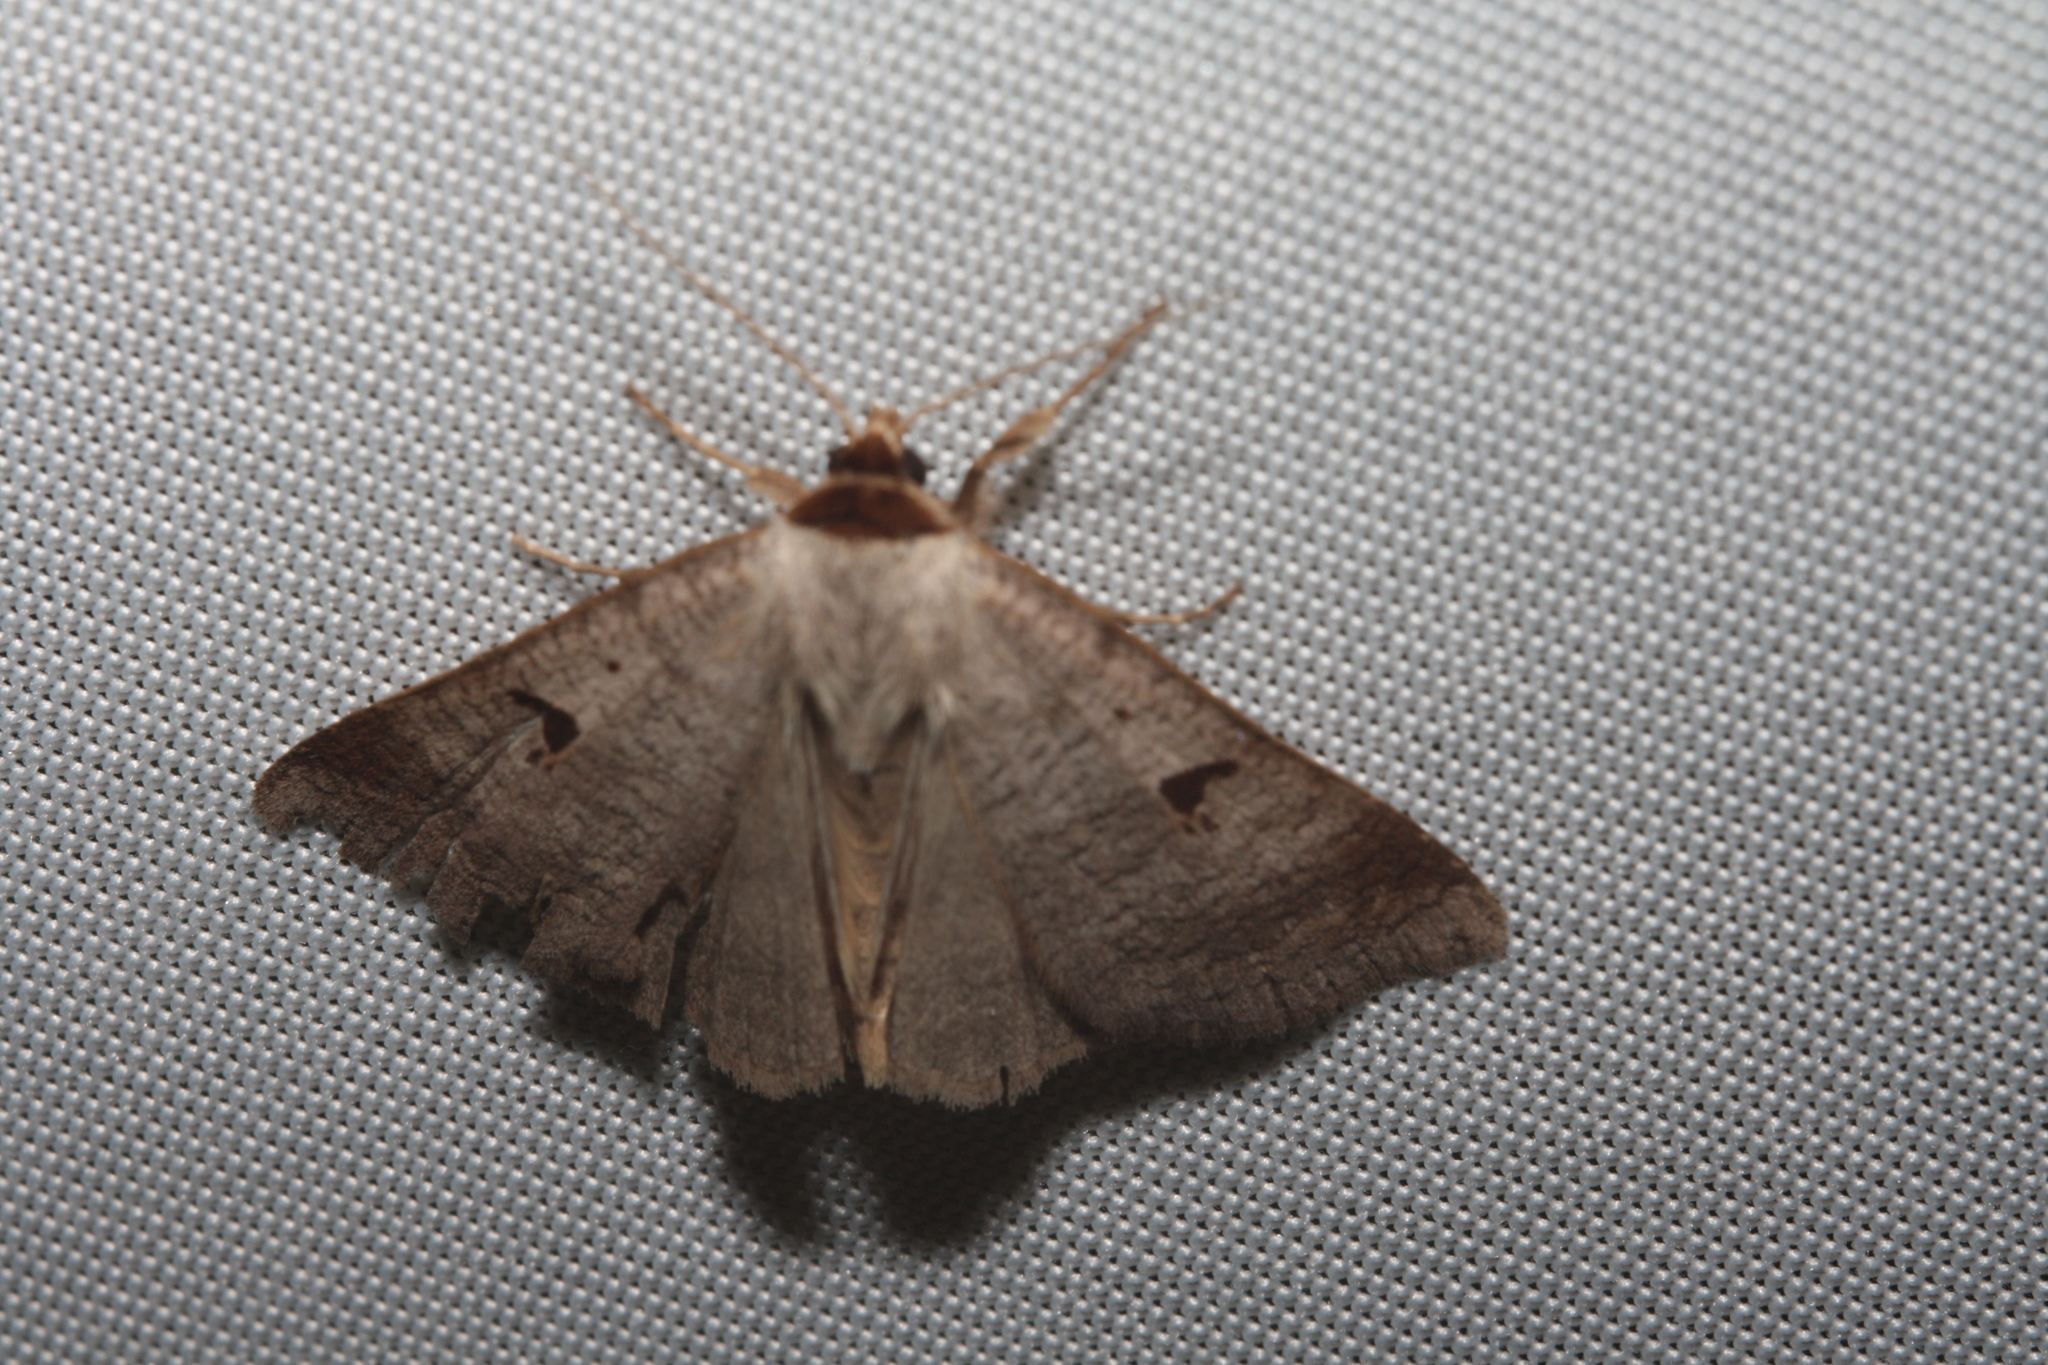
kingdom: Animalia
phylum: Arthropoda
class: Insecta
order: Lepidoptera
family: Erebidae
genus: Lygephila
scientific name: Lygephila pastinum
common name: Blackneck
